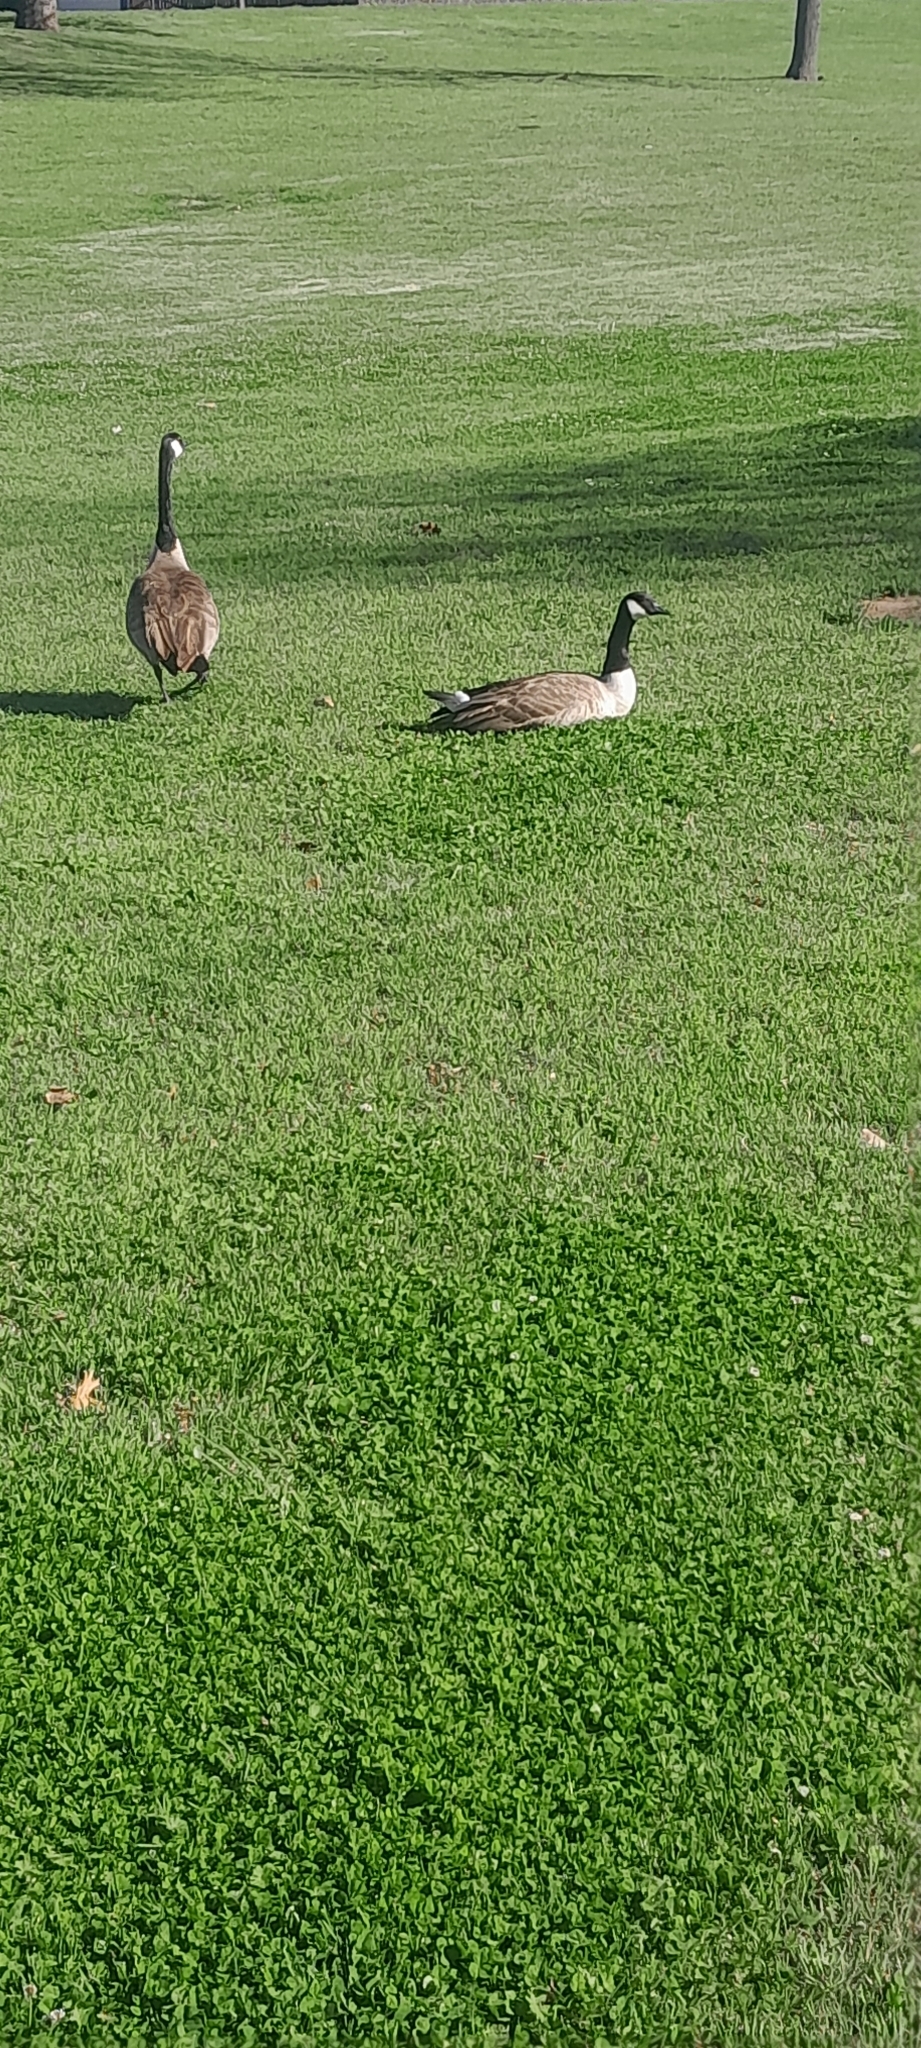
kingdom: Animalia
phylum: Chordata
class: Aves
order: Anseriformes
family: Anatidae
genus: Branta
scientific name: Branta canadensis
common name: Canada goose
